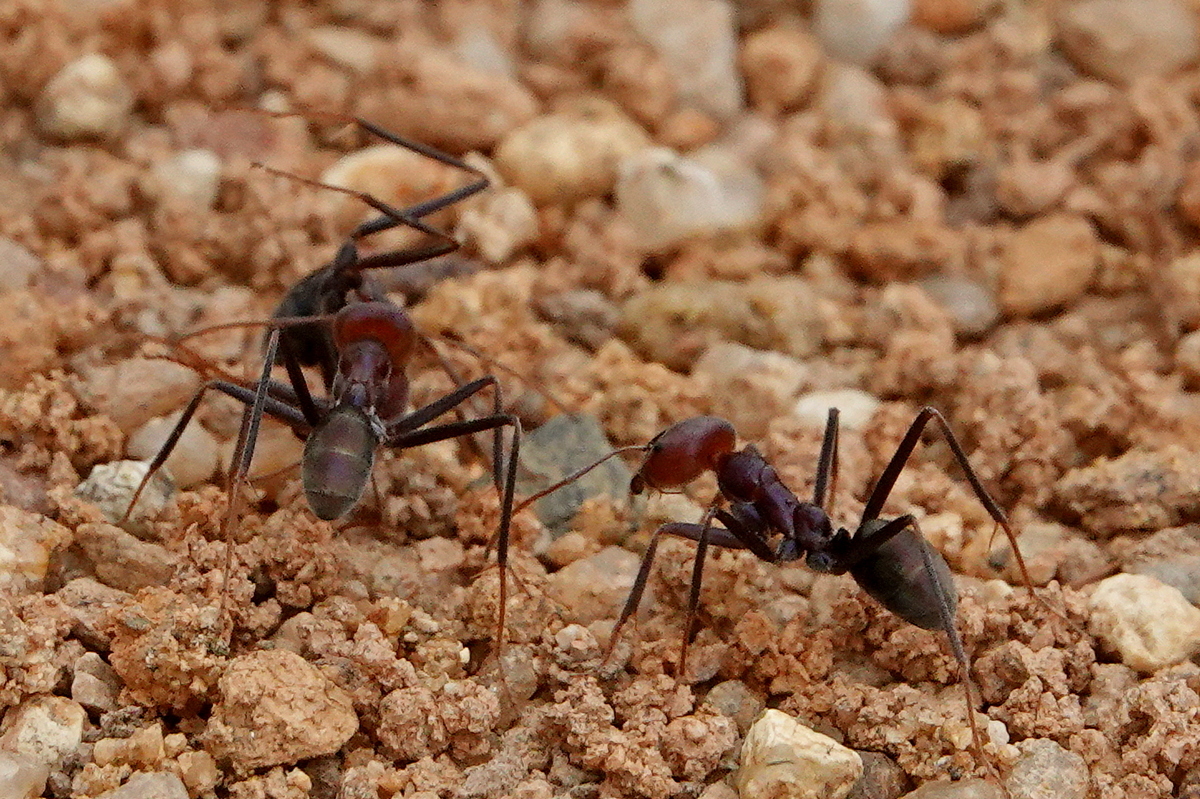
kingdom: Animalia
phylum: Arthropoda
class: Insecta
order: Hymenoptera
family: Formicidae
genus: Iridomyrmex
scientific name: Iridomyrmex purpureus
